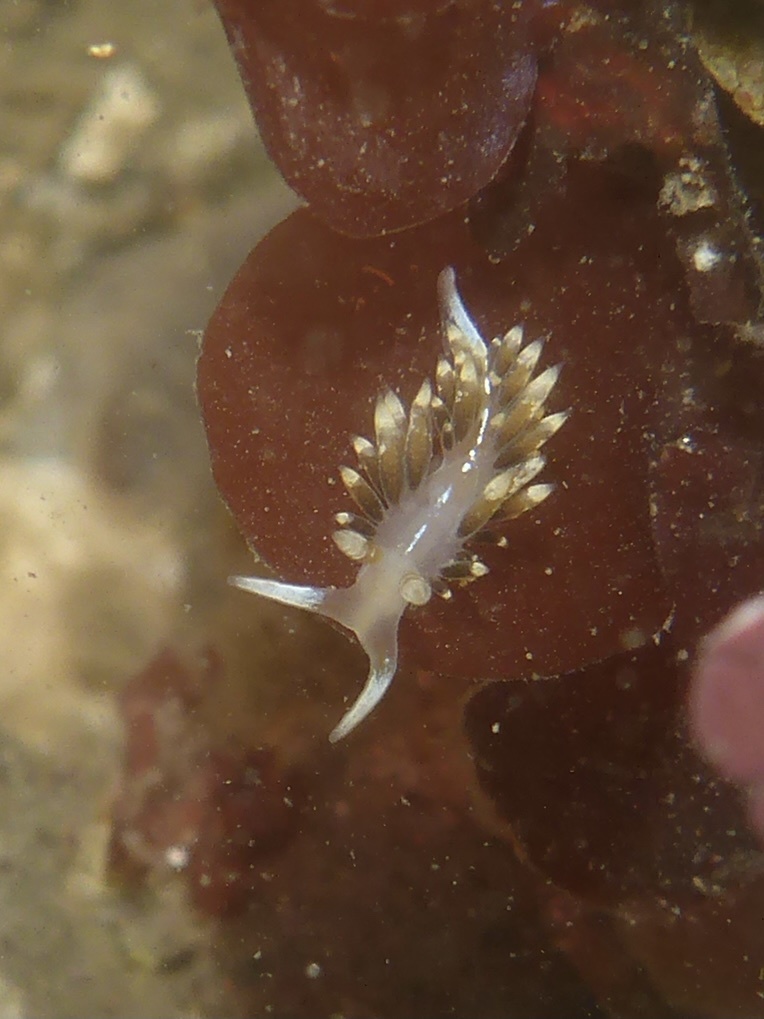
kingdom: Animalia
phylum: Mollusca
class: Gastropoda
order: Nudibranchia
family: Facelinidae
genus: Phidiana
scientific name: Phidiana hiltoni
